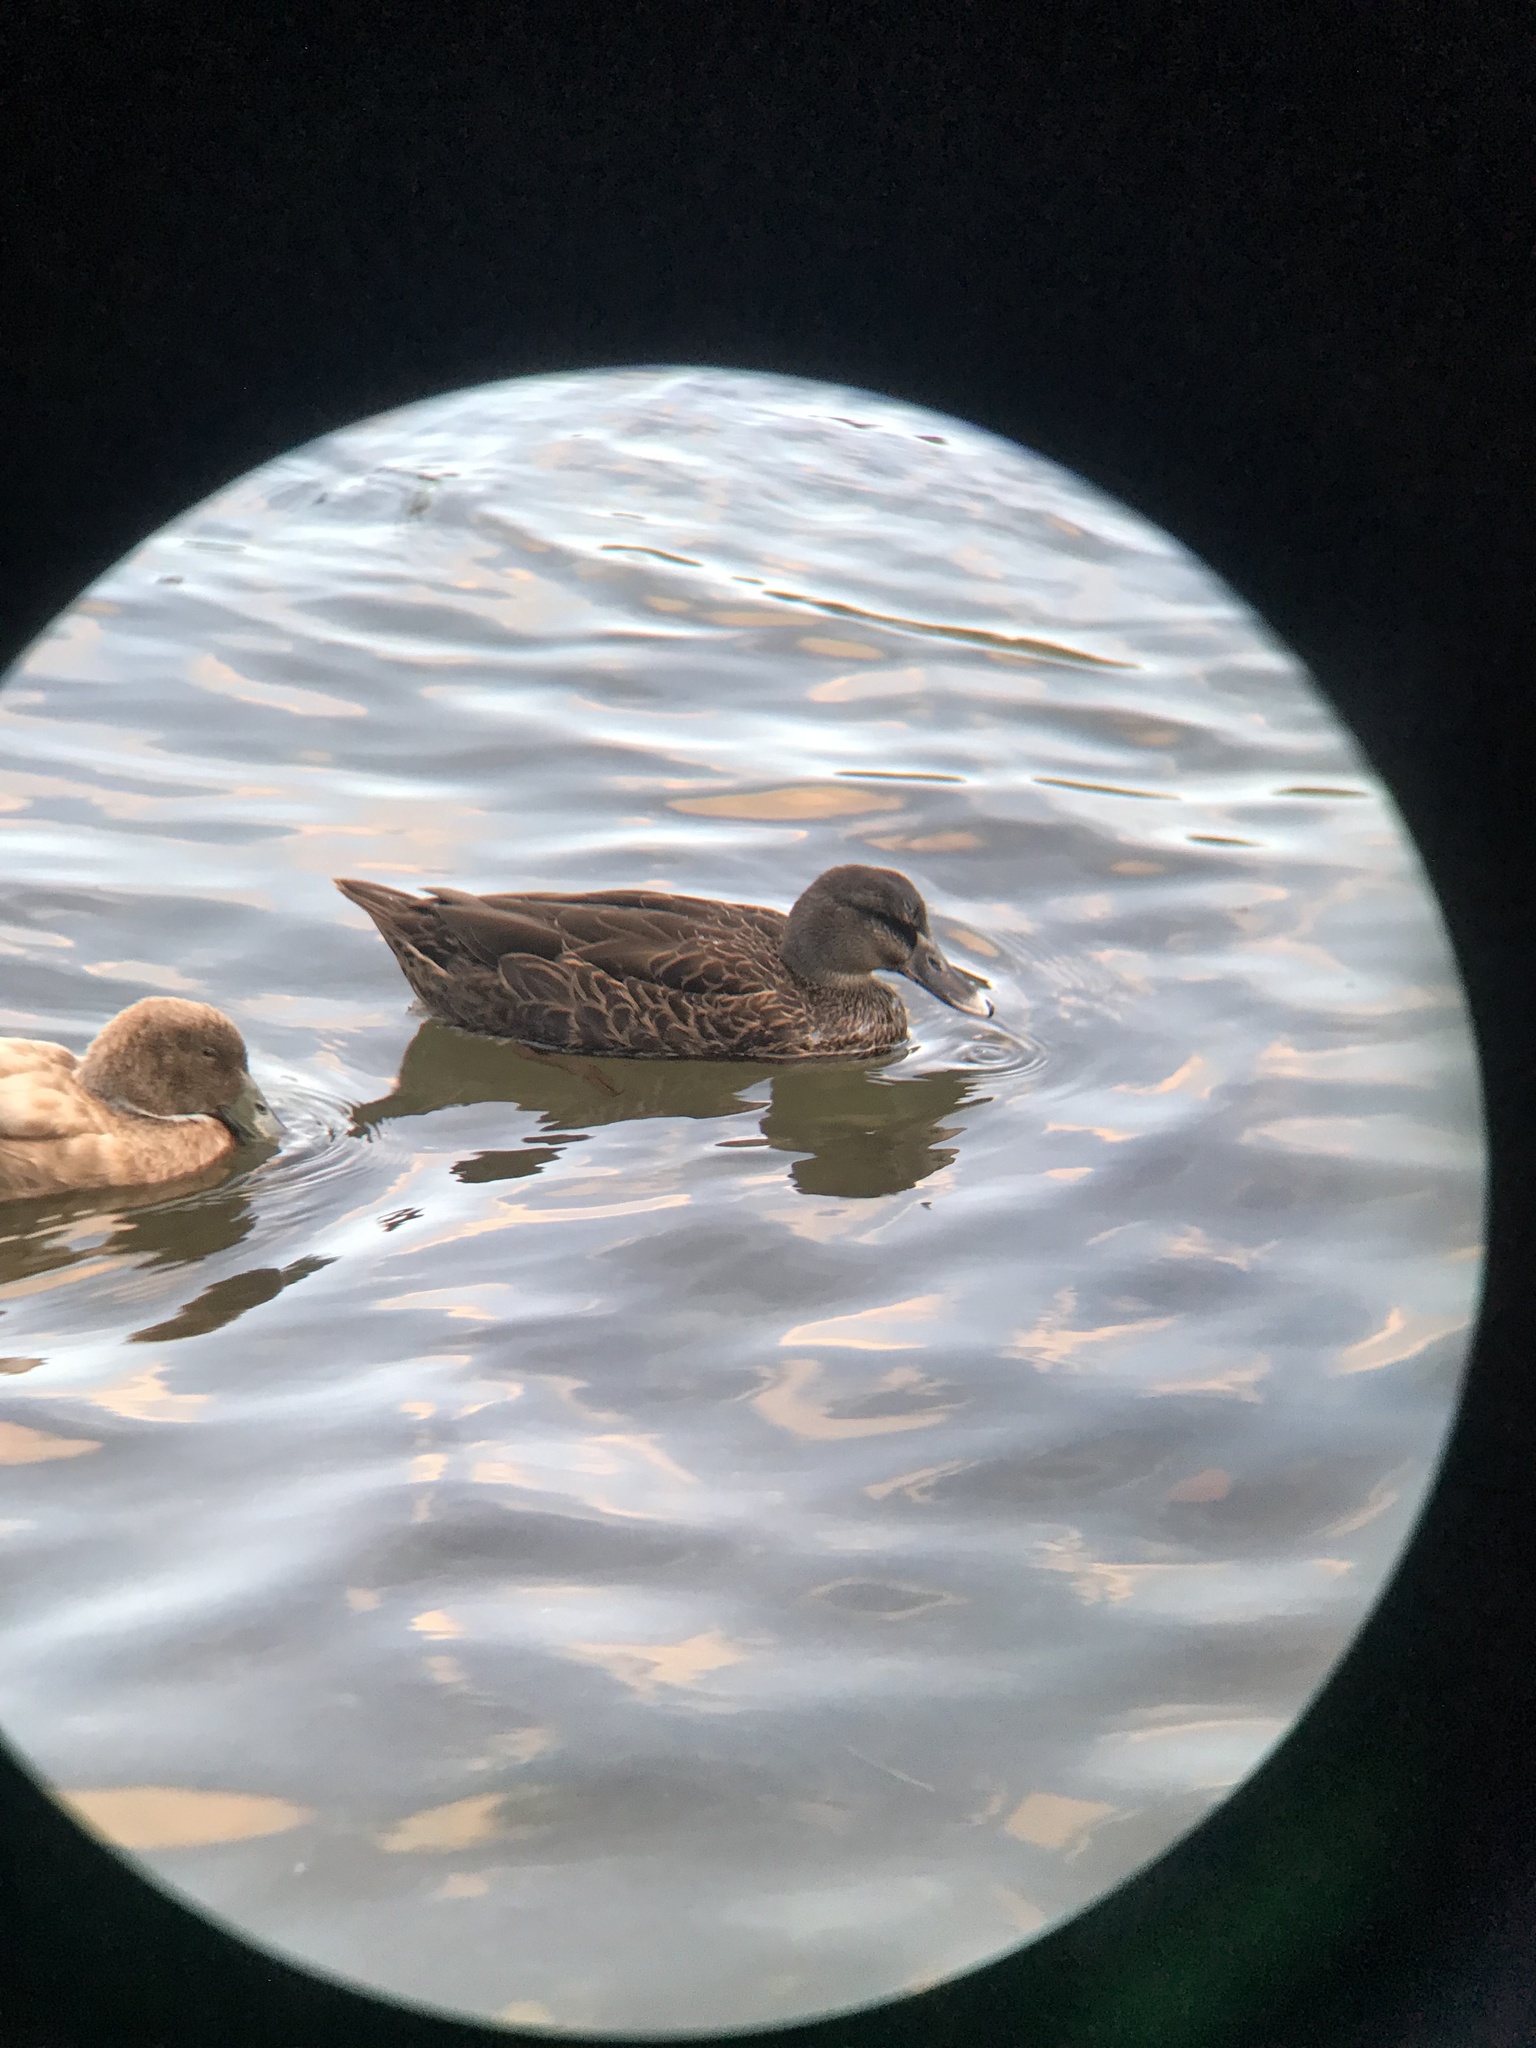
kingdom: Animalia
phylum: Chordata
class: Aves
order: Anseriformes
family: Anatidae
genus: Anas
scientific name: Anas
